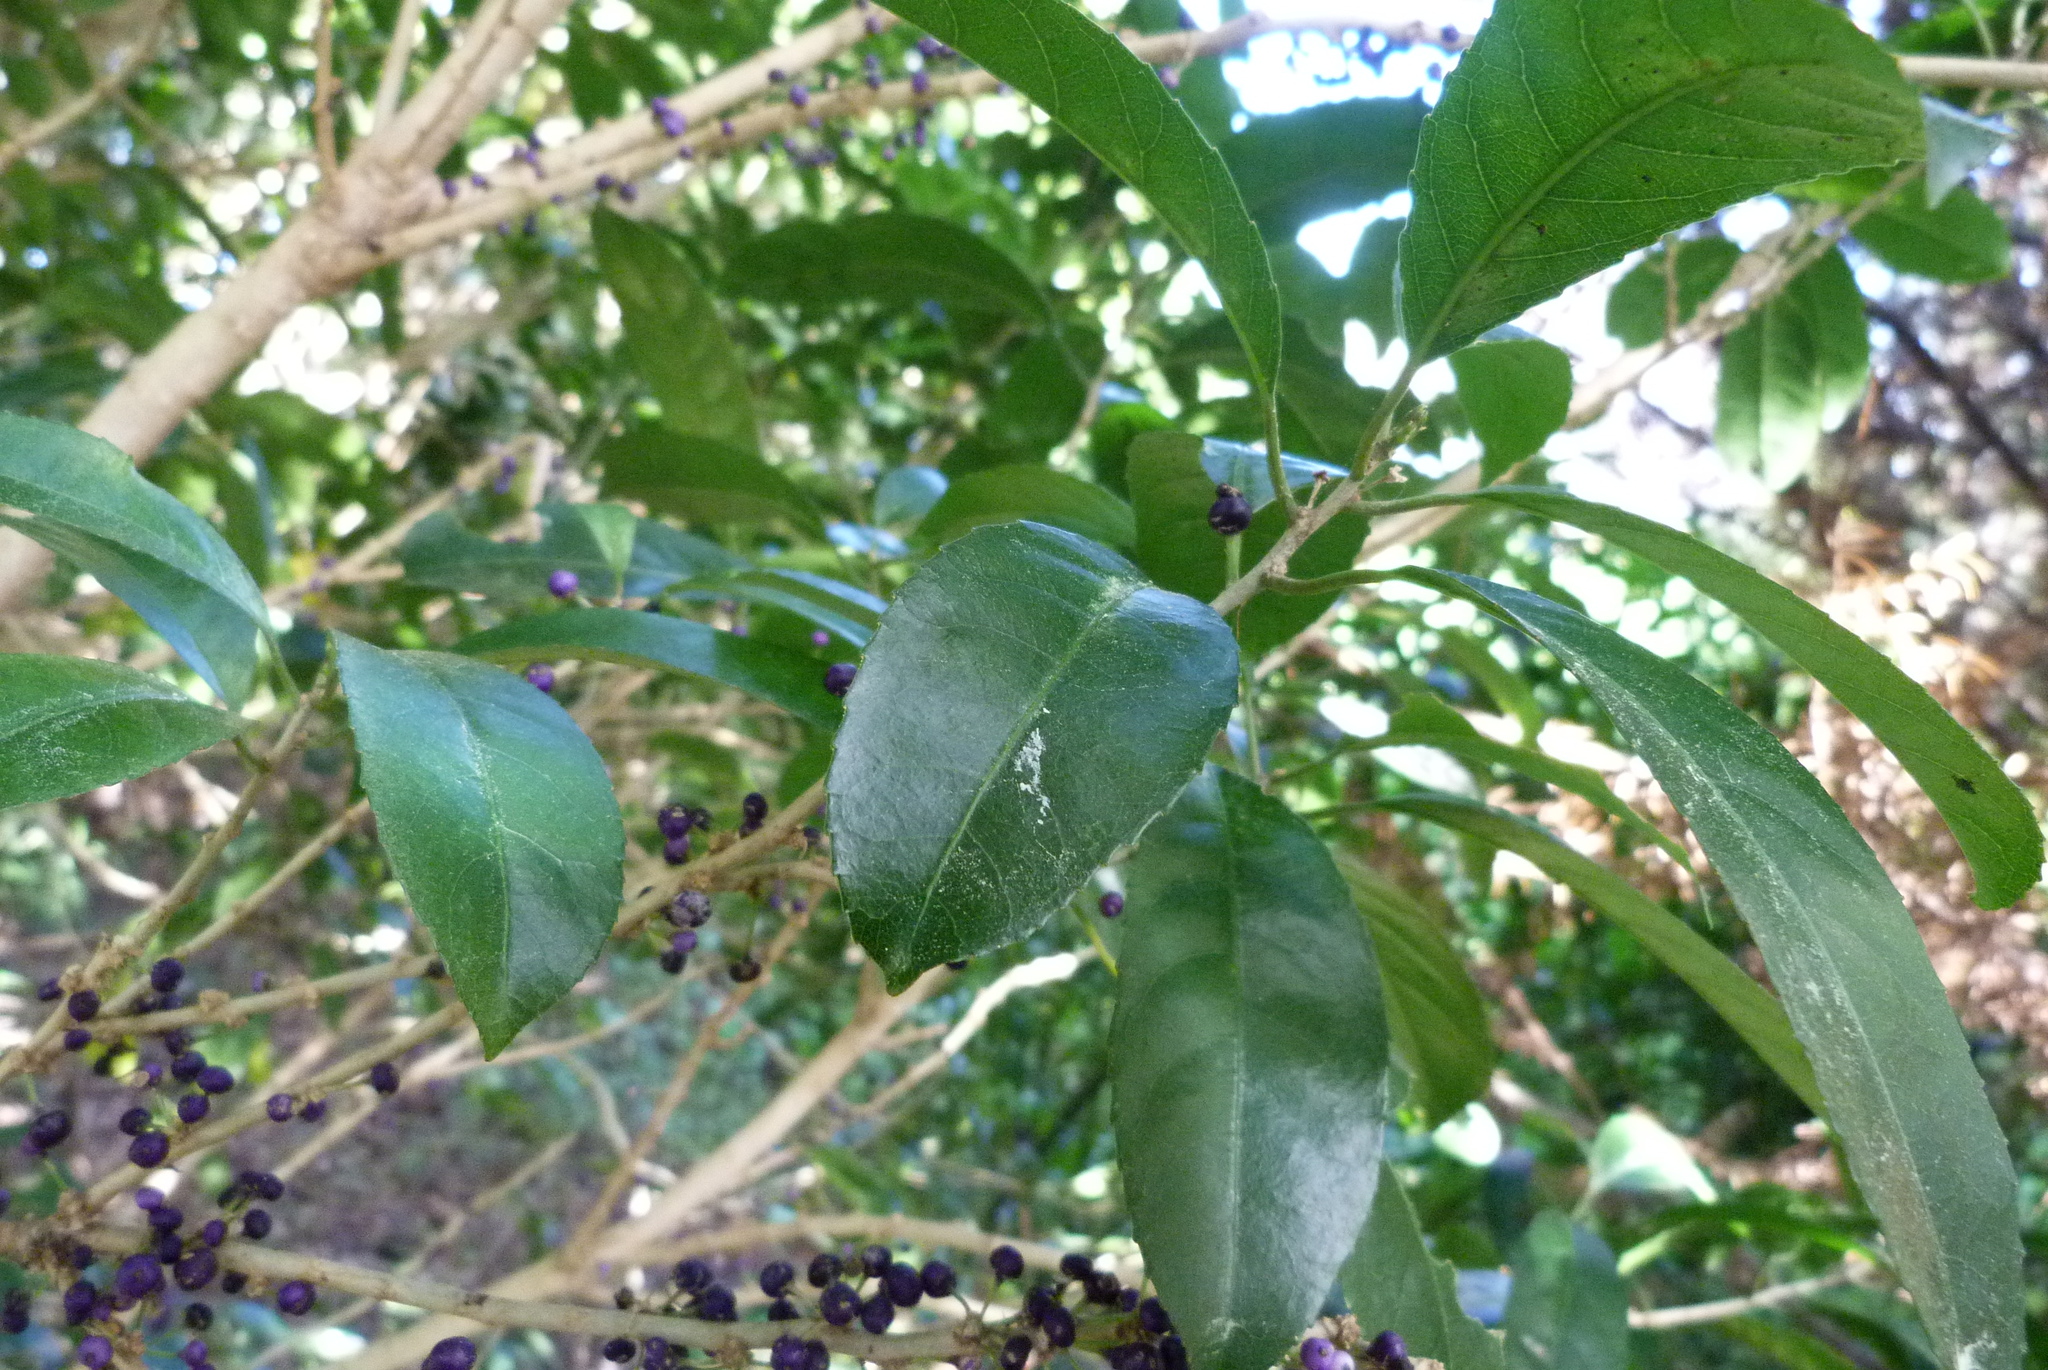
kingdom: Plantae
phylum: Tracheophyta
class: Magnoliopsida
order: Malpighiales
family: Violaceae
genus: Melicytus
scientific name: Melicytus ramiflorus
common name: Mahoe
